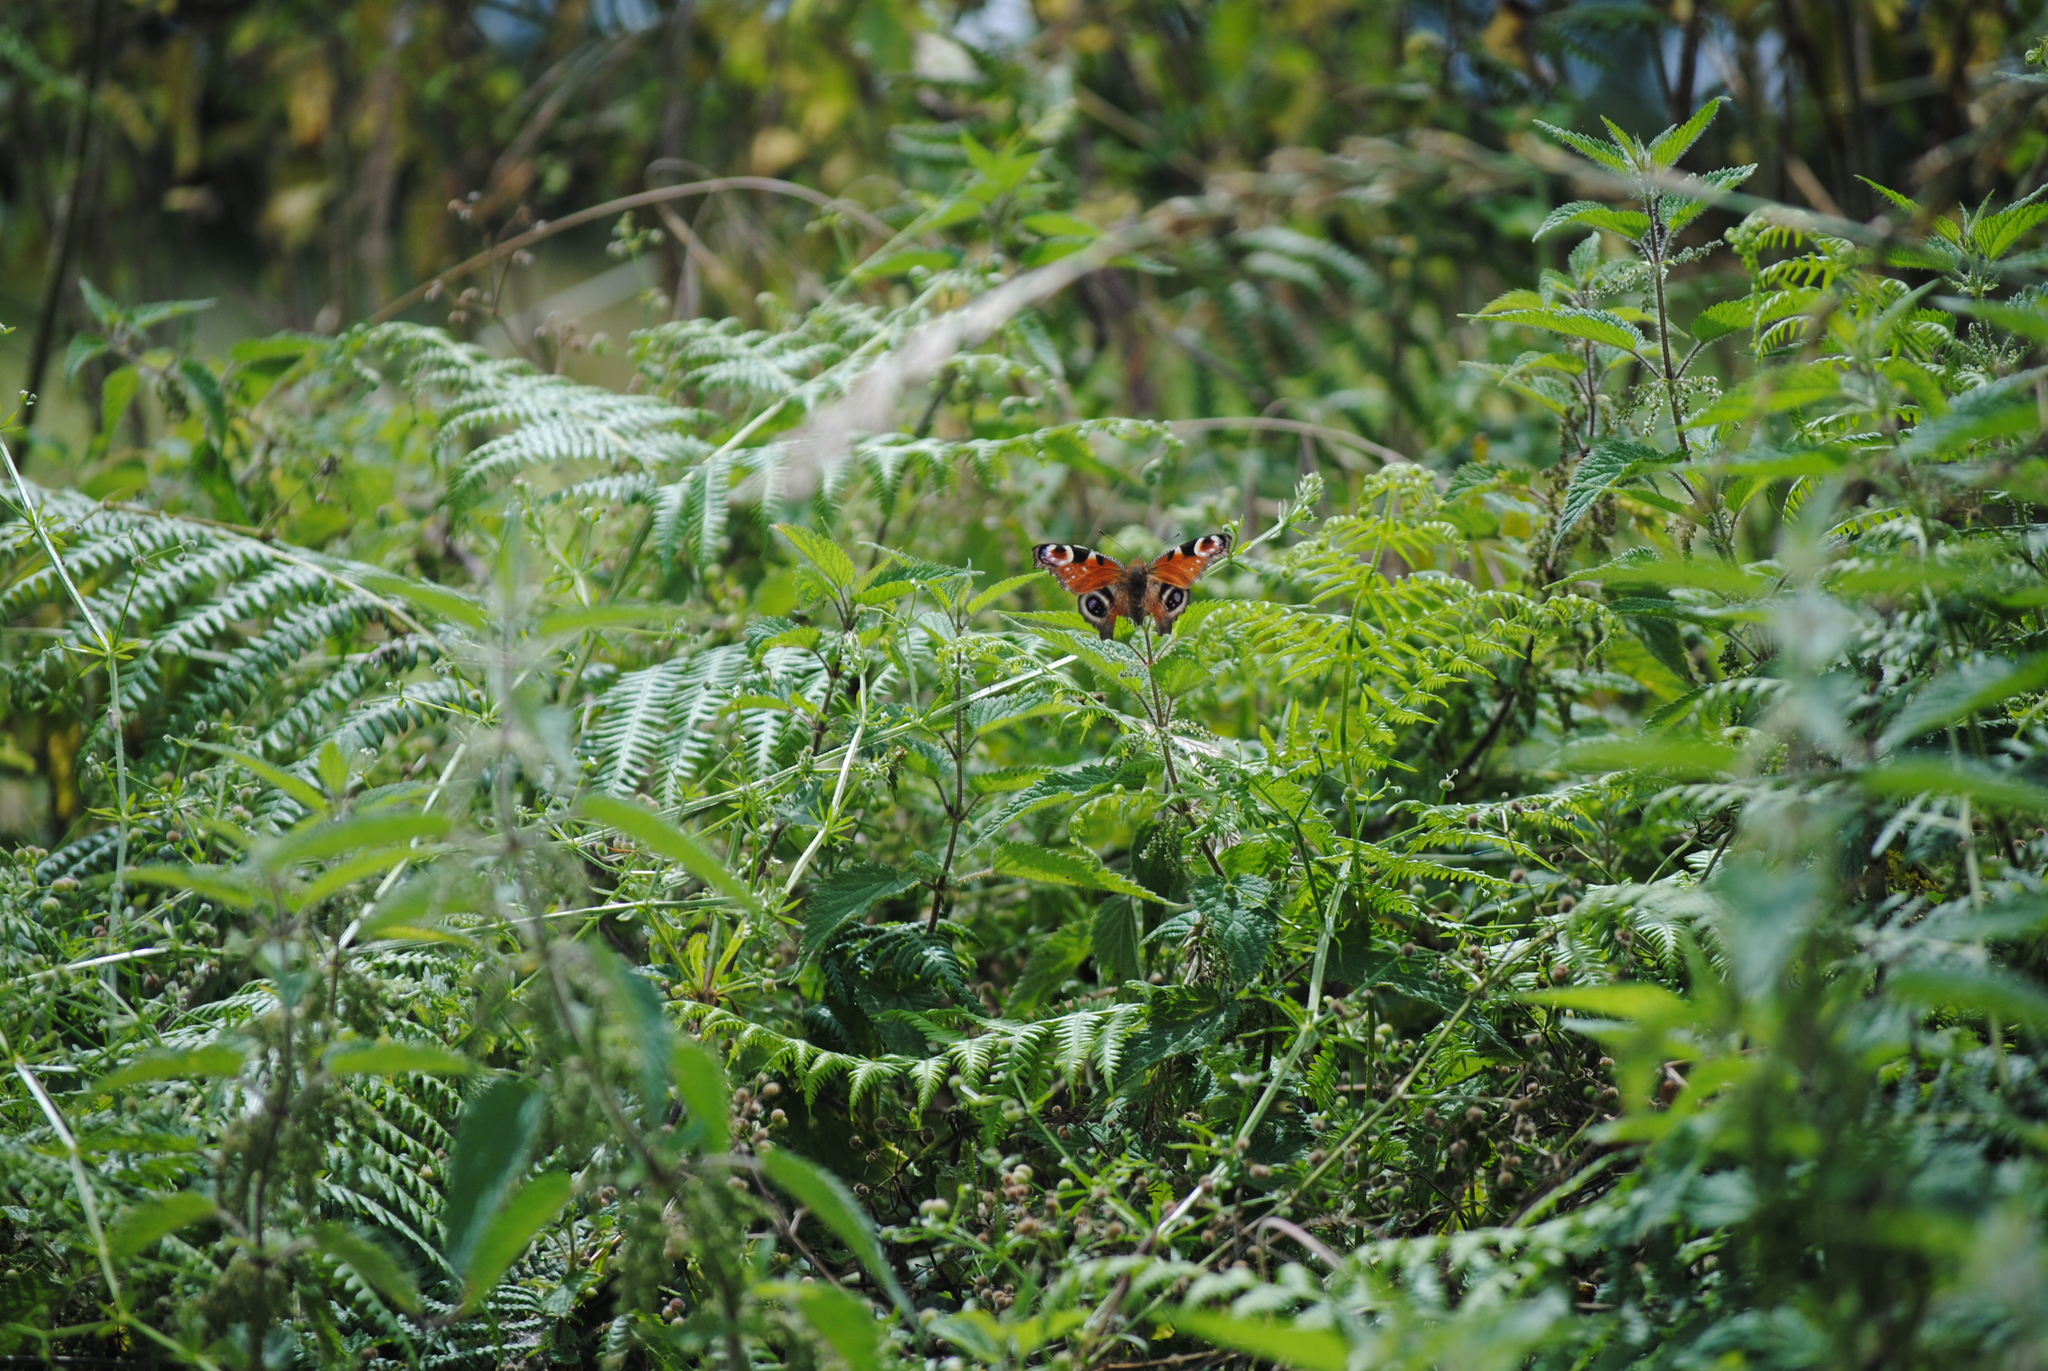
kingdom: Animalia
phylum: Arthropoda
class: Insecta
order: Lepidoptera
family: Nymphalidae
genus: Aglais
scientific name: Aglais io
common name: Peacock
